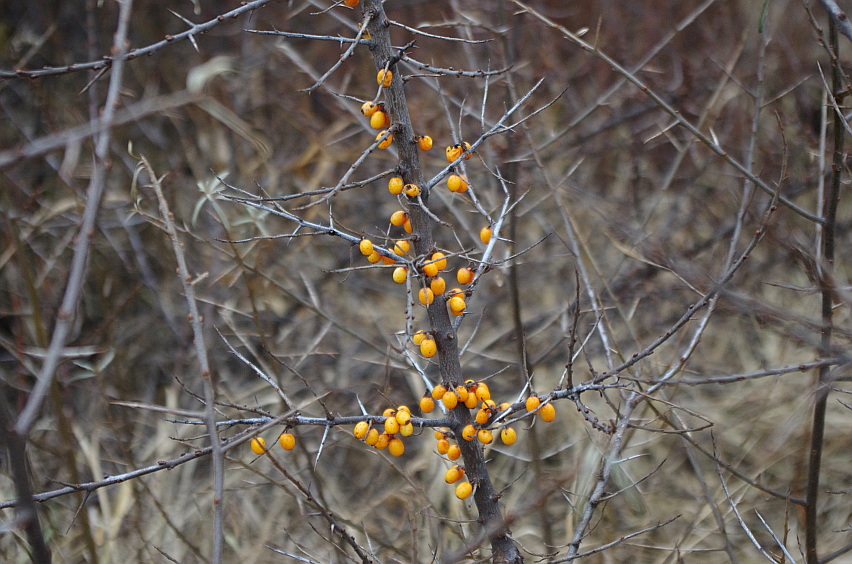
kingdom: Plantae
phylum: Tracheophyta
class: Magnoliopsida
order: Rosales
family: Elaeagnaceae
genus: Hippophae
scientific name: Hippophae rhamnoides
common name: Sea-buckthorn
